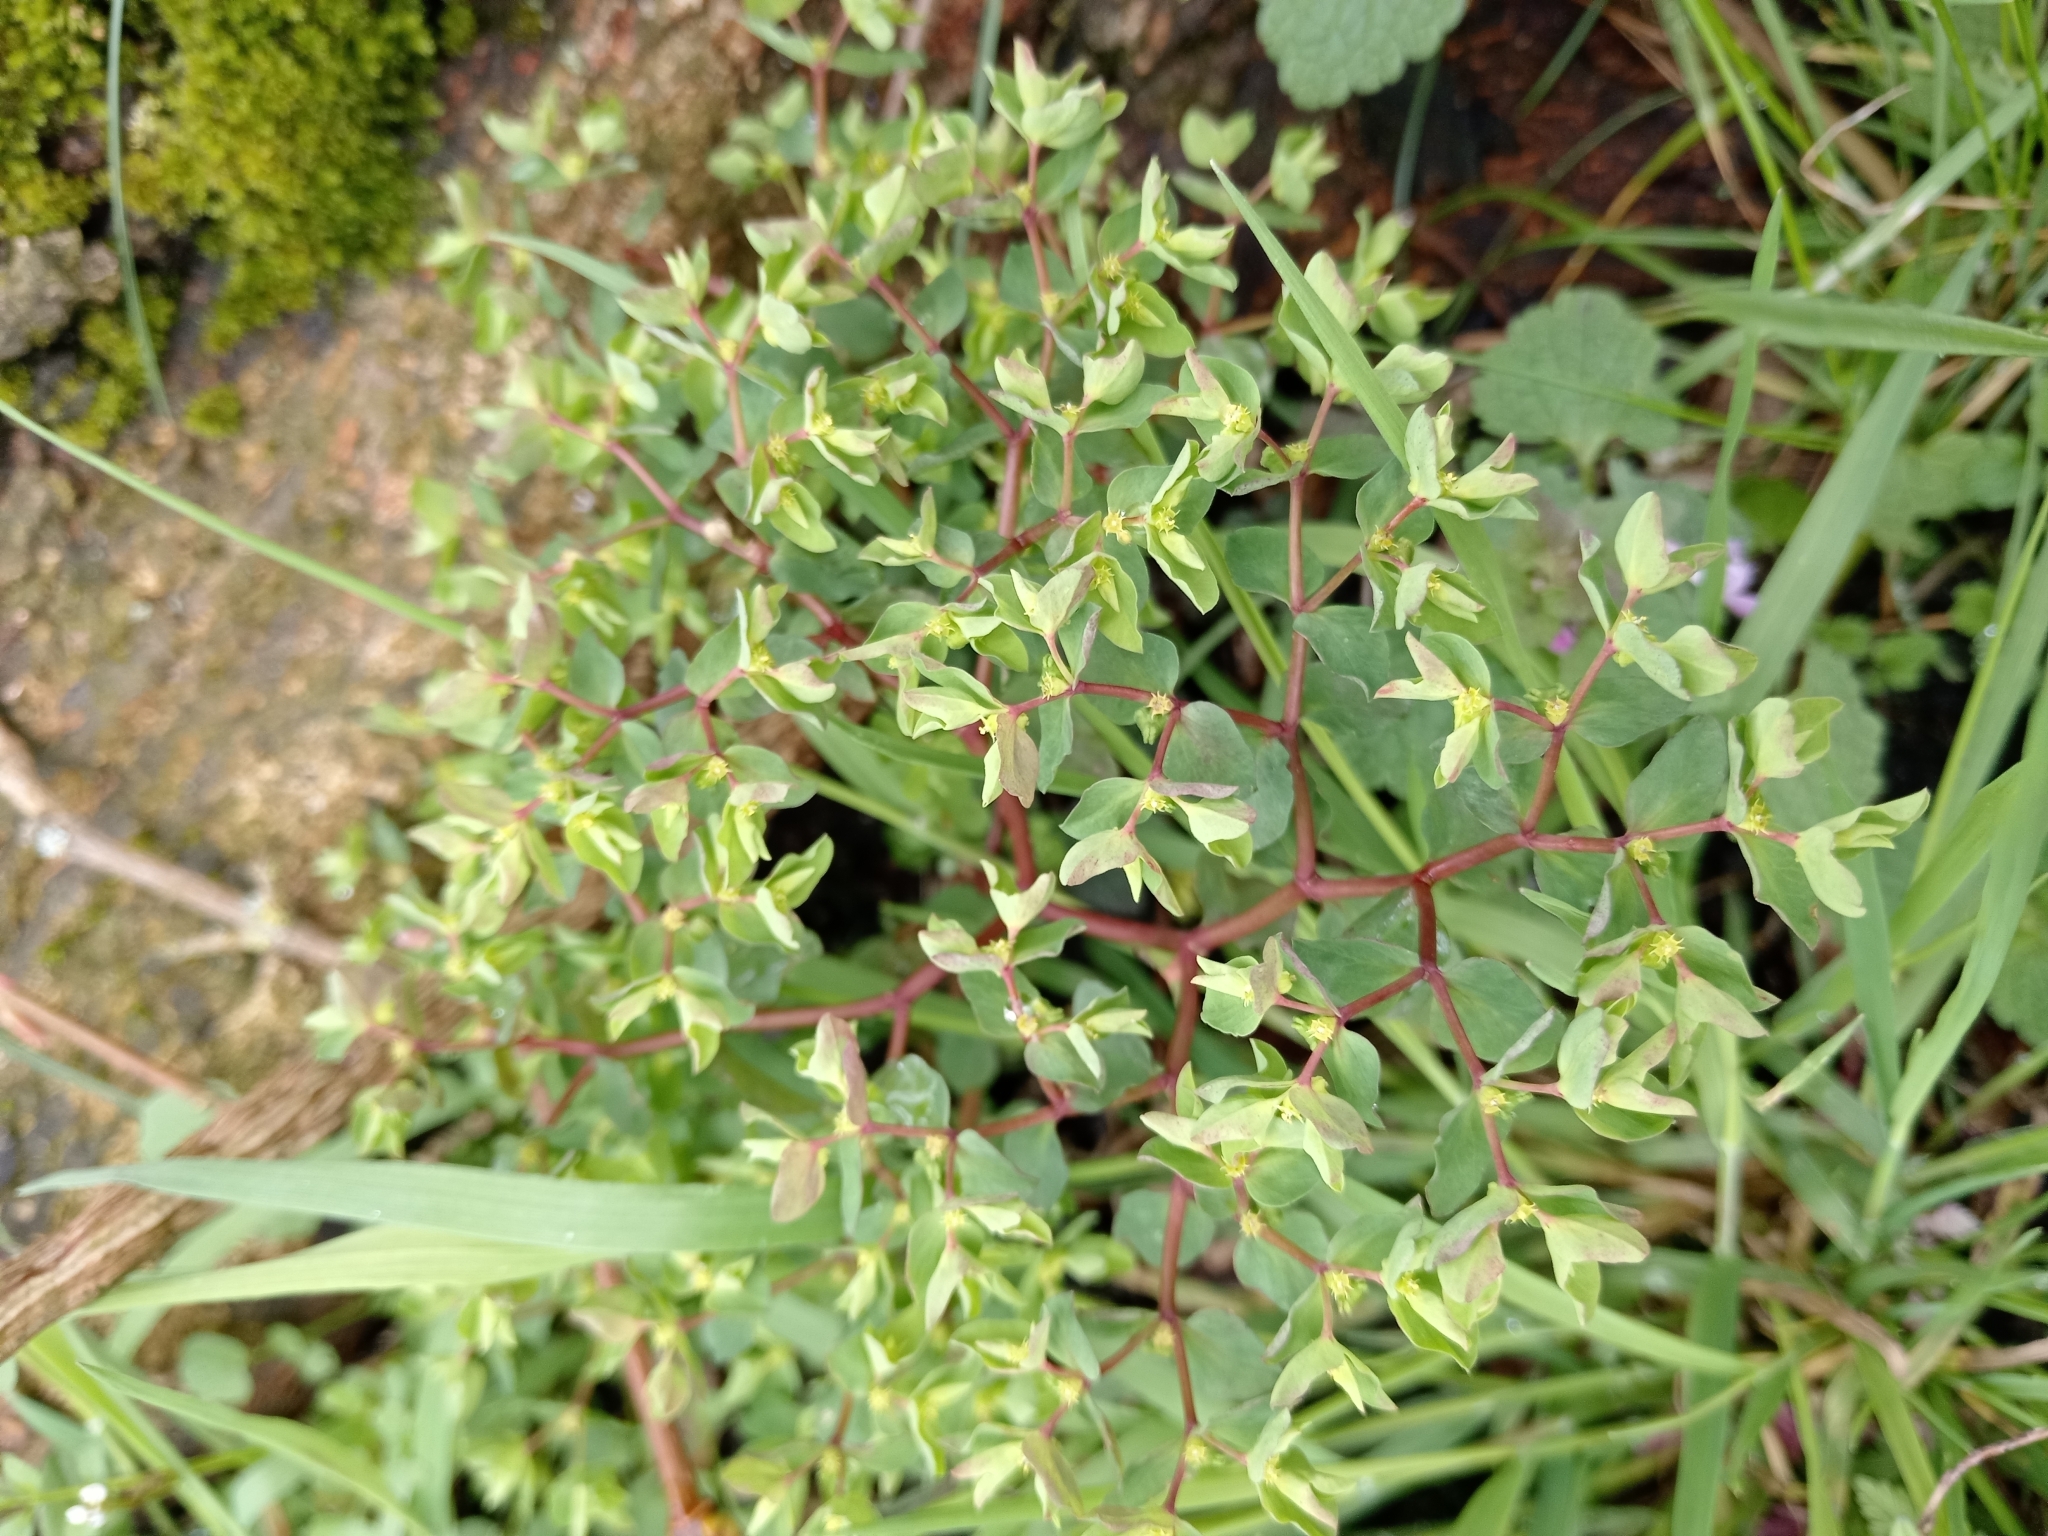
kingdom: Plantae
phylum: Tracheophyta
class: Magnoliopsida
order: Malpighiales
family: Euphorbiaceae
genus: Euphorbia
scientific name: Euphorbia peplus
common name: Petty spurge
